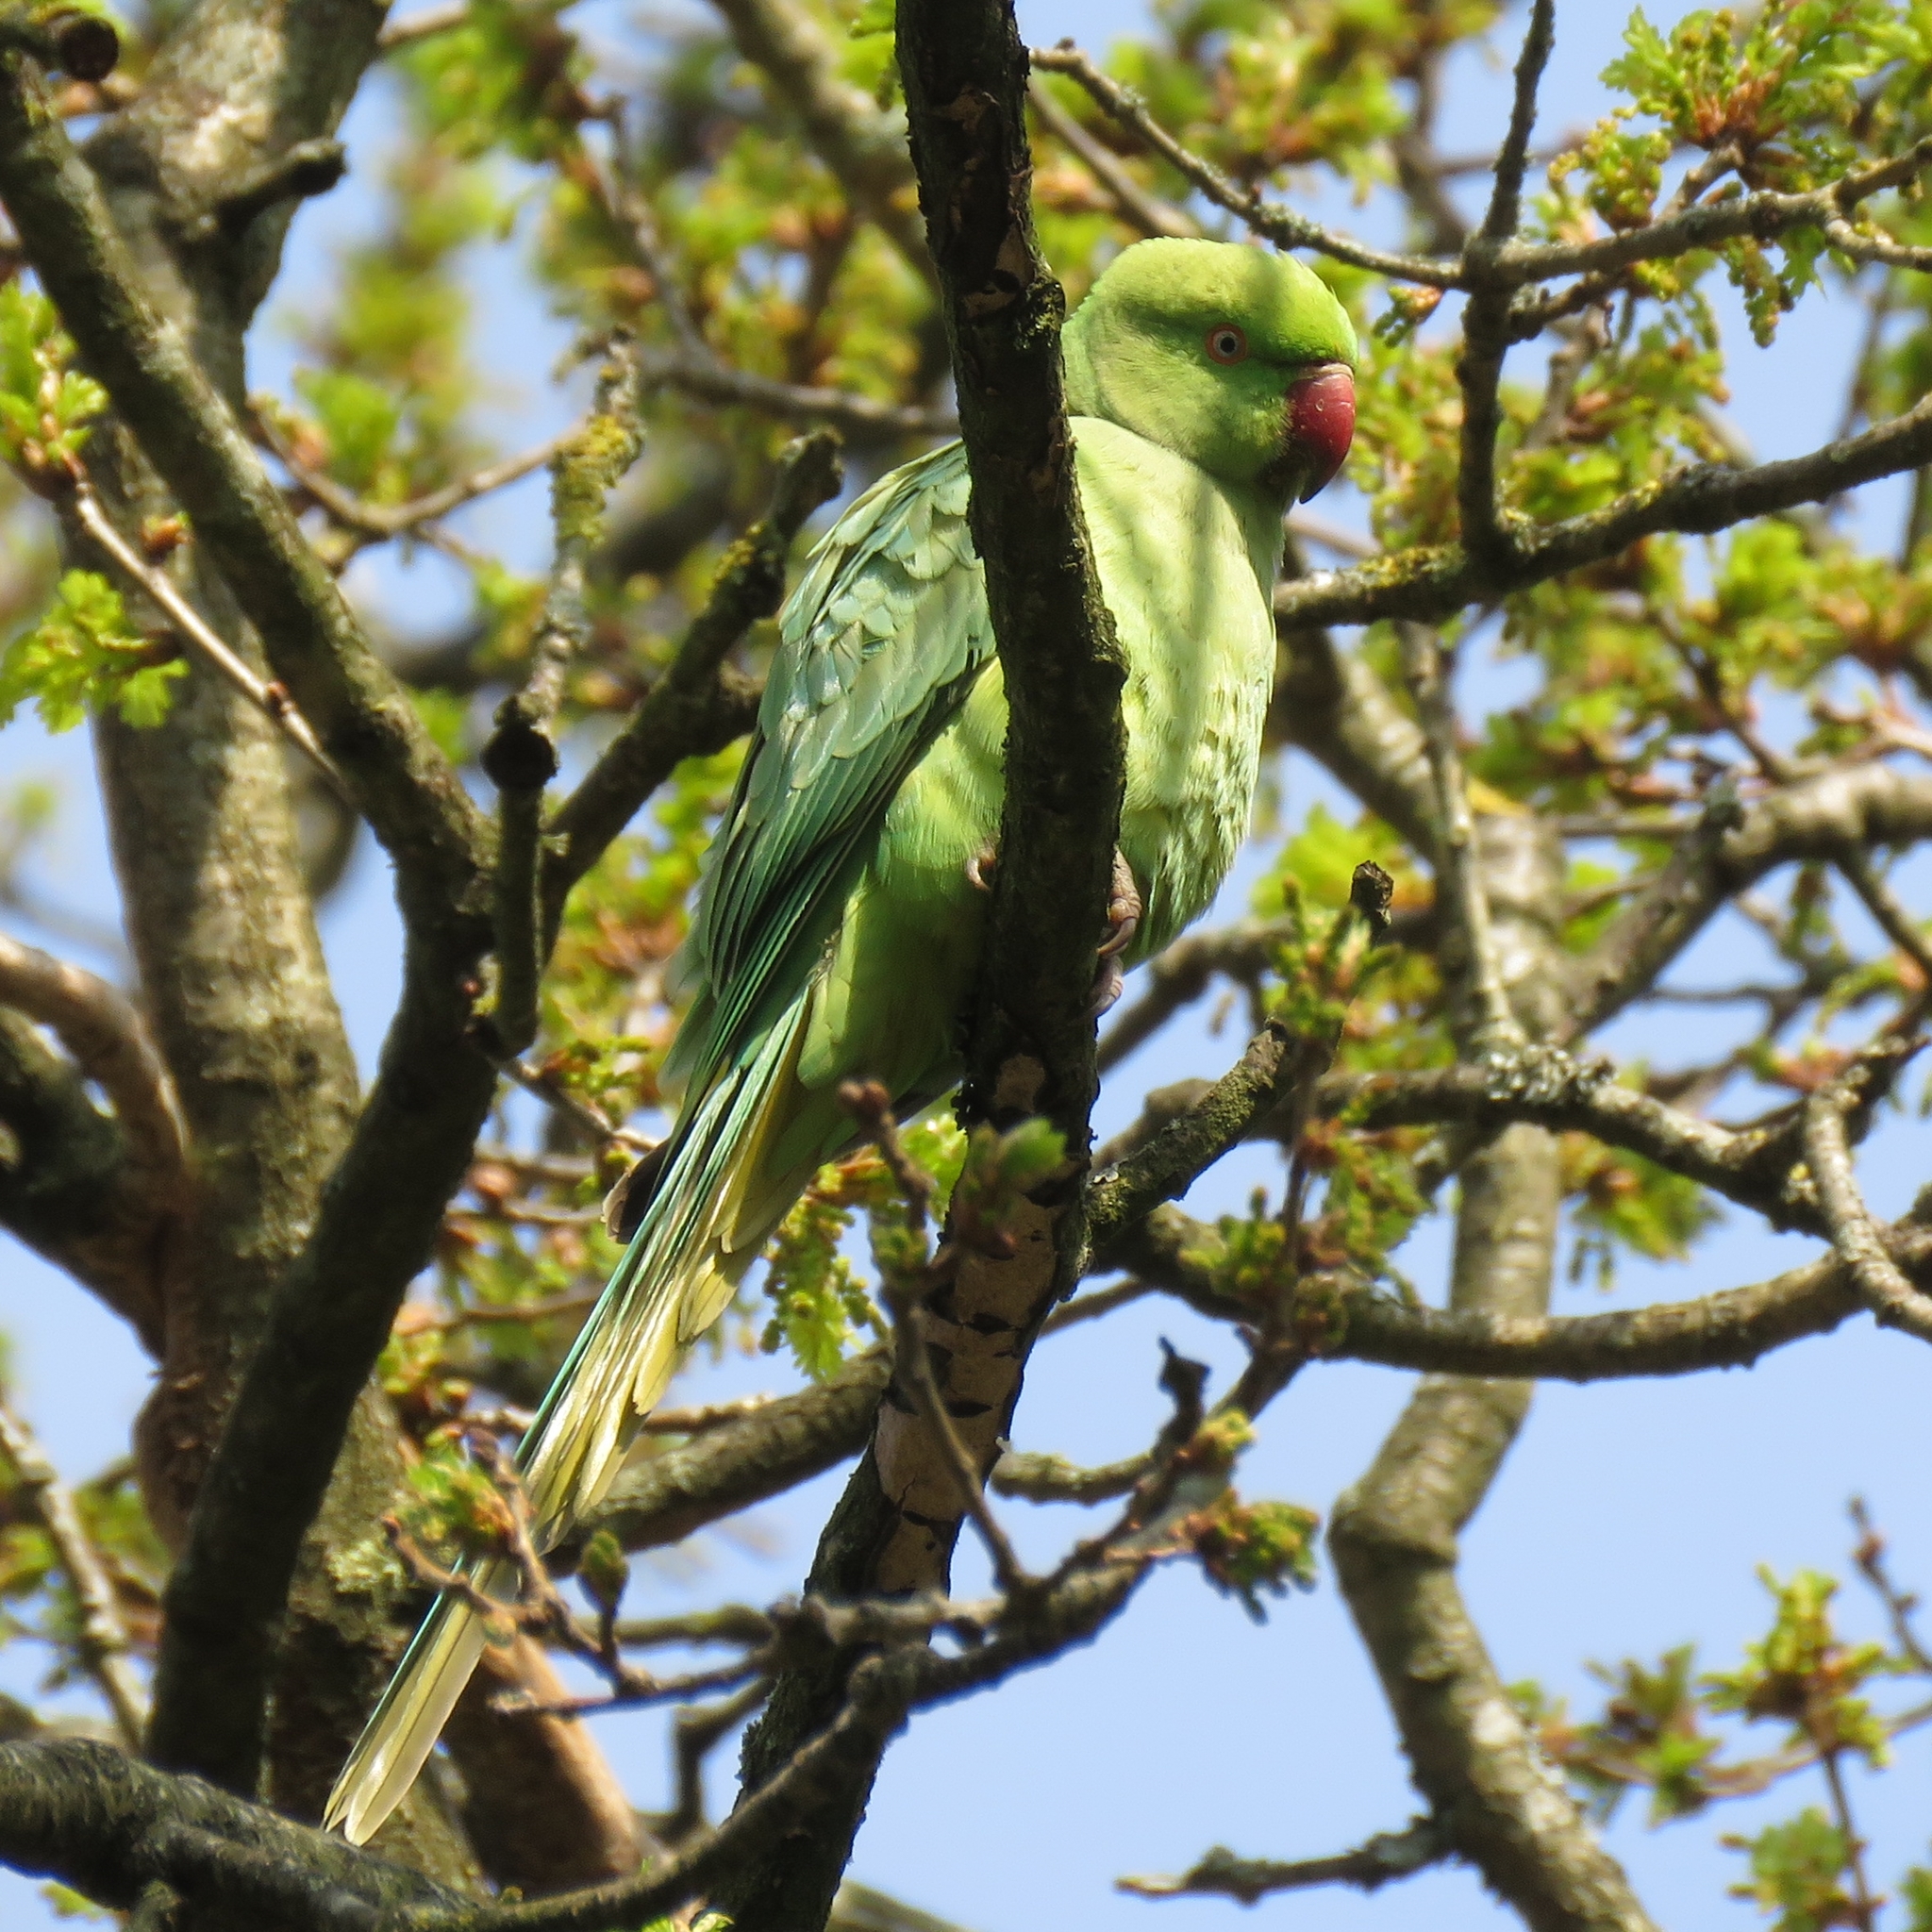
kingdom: Animalia
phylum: Chordata
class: Aves
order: Psittaciformes
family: Psittacidae
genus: Psittacula
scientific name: Psittacula krameri
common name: Rose-ringed parakeet
